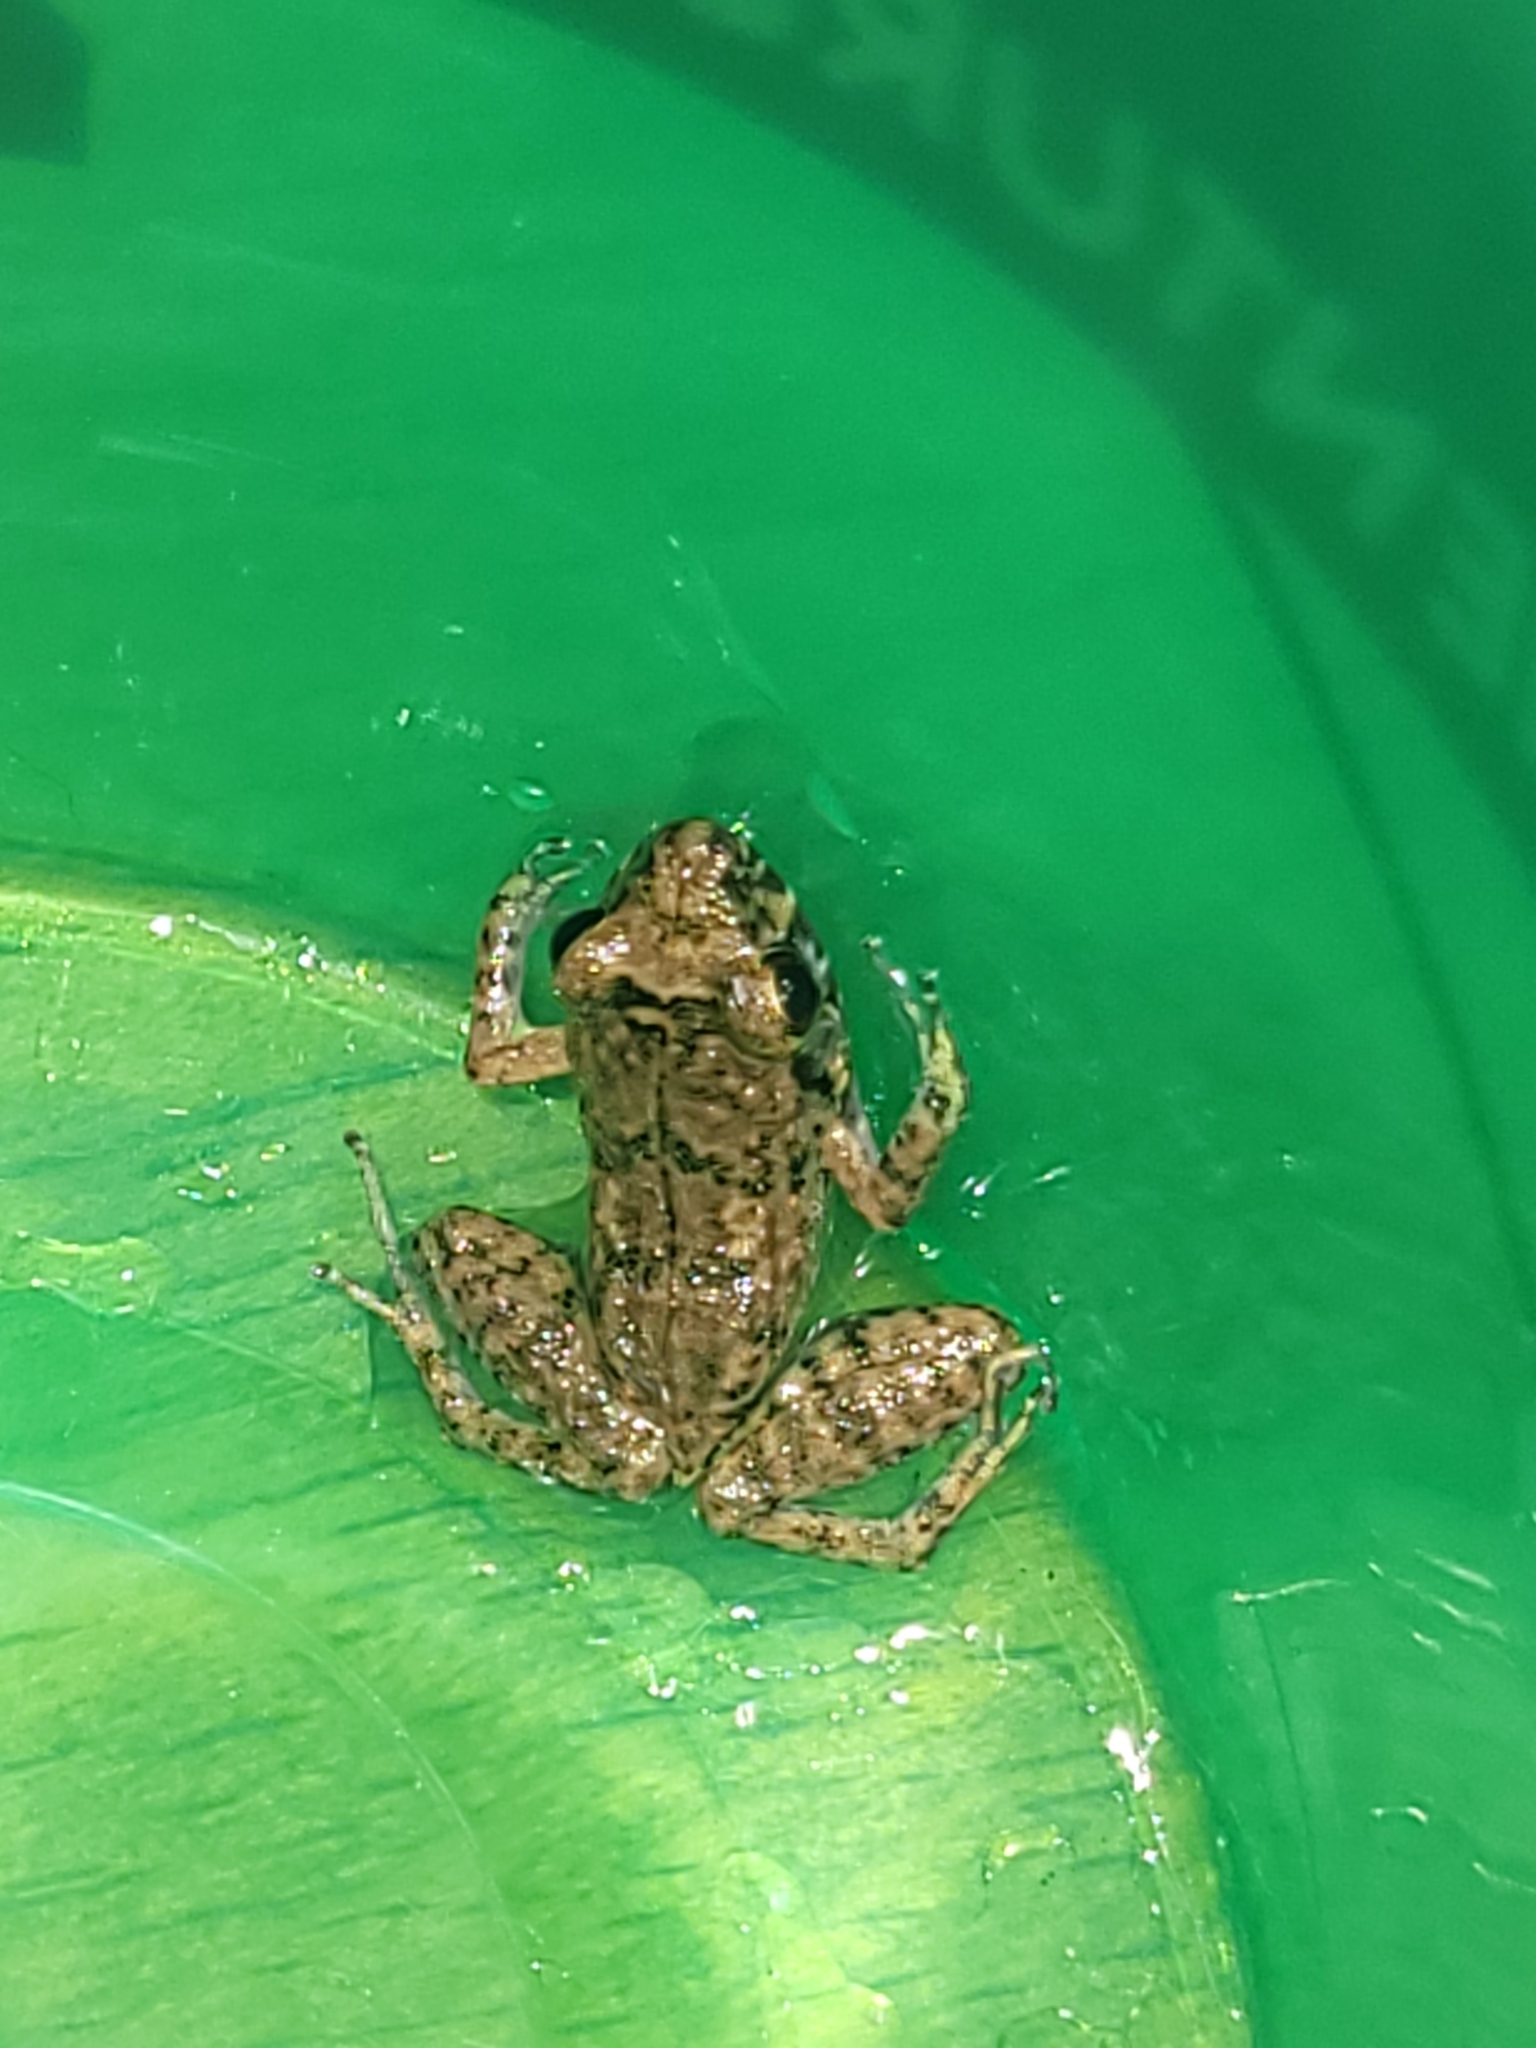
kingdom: Animalia
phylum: Chordata
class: Amphibia
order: Anura
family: Eleutherodactylidae
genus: Eleutherodactylus
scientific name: Eleutherodactylus planirostris
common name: Greenhouse frog
